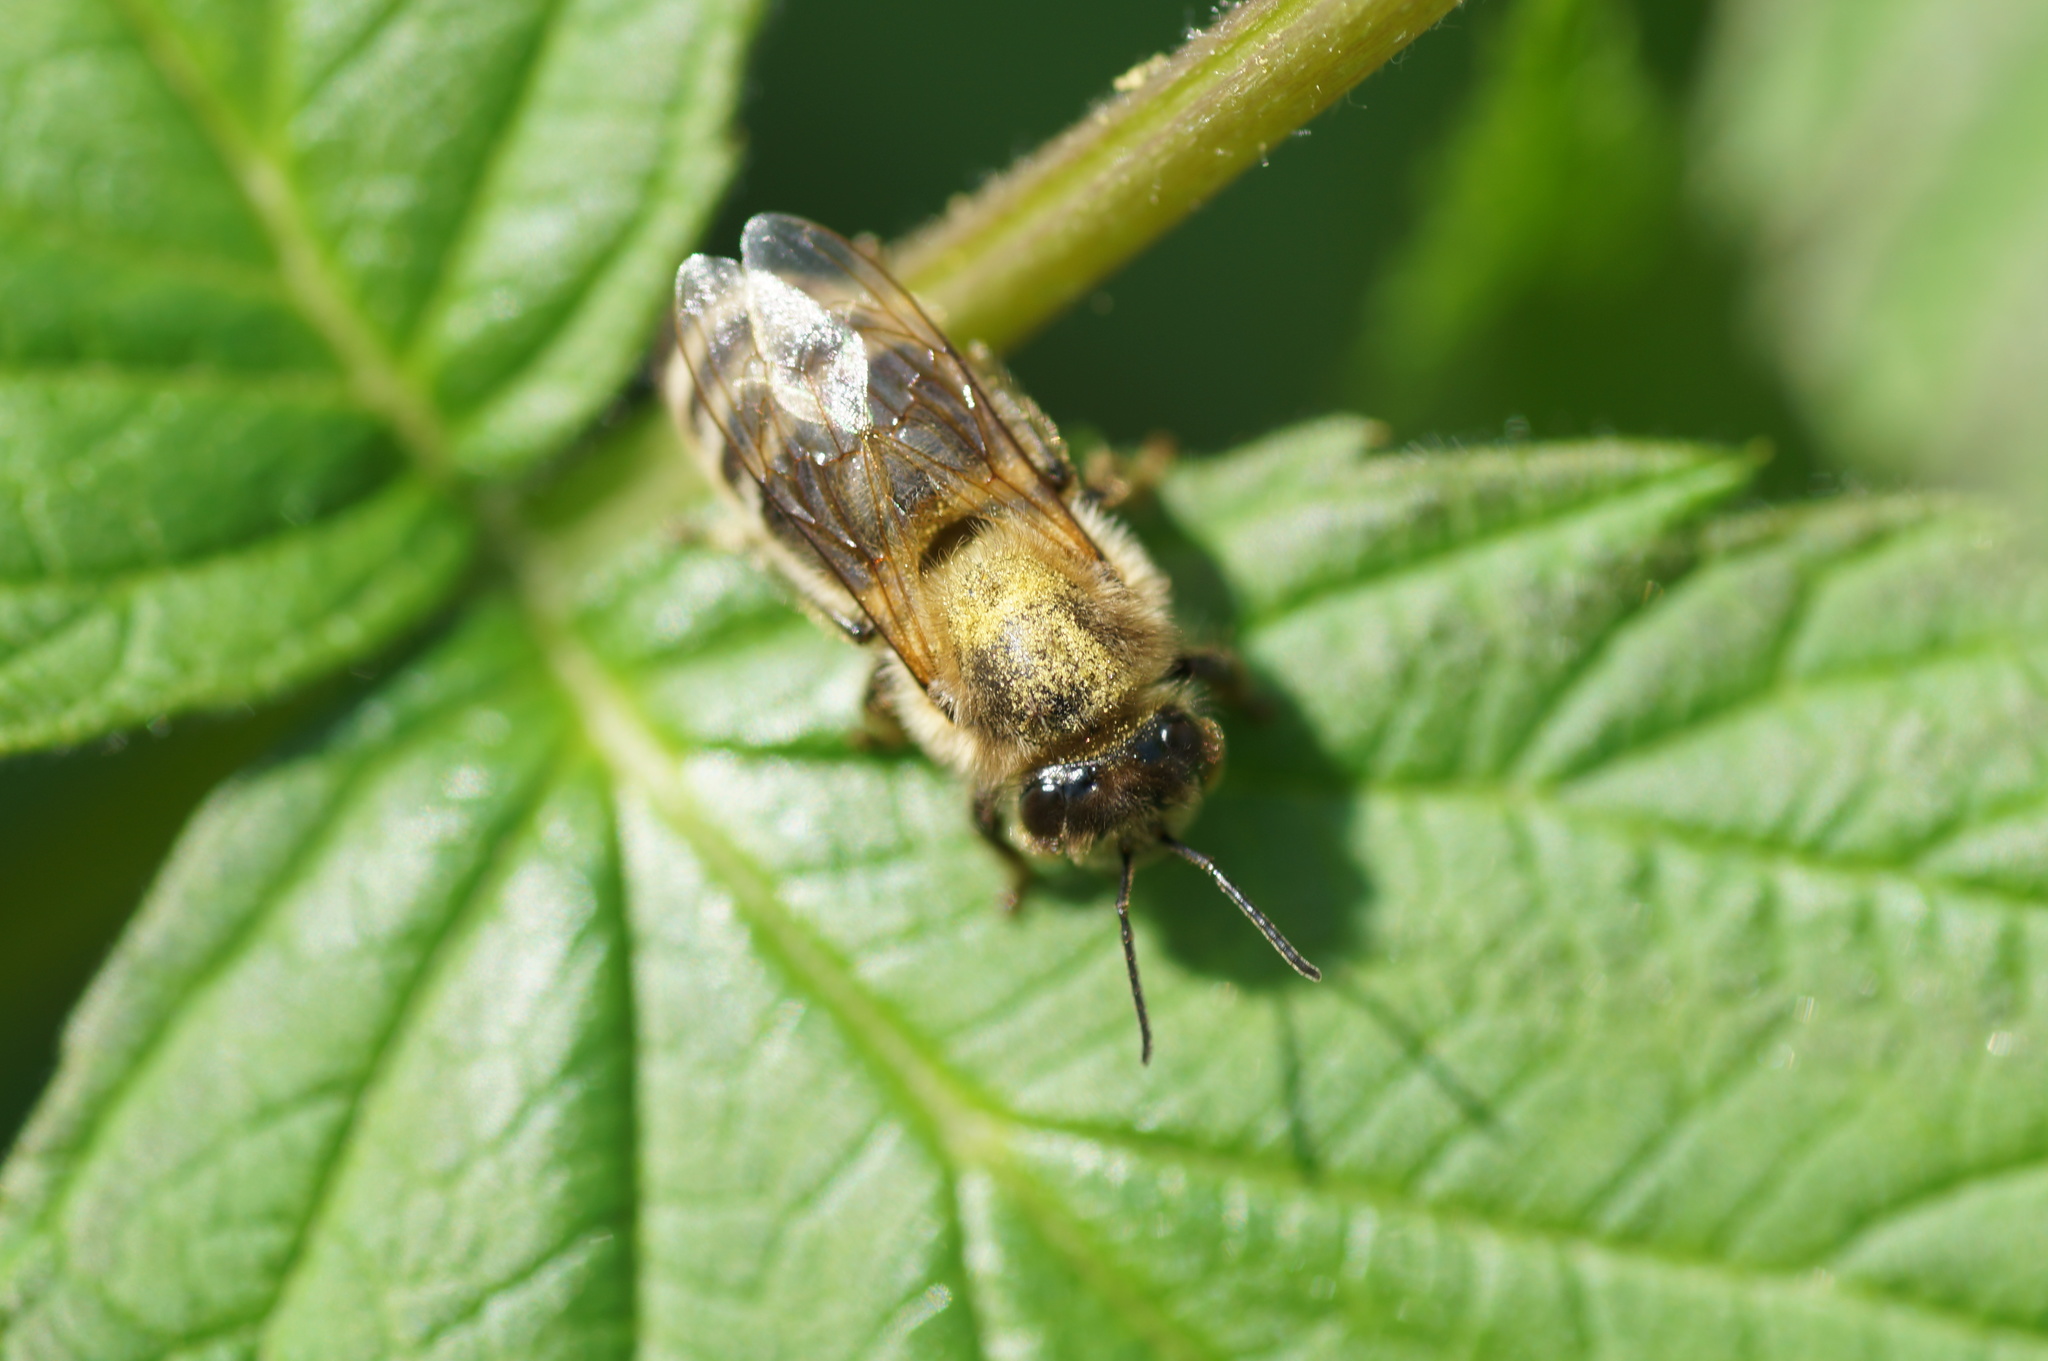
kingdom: Animalia
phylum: Arthropoda
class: Insecta
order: Hymenoptera
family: Apidae
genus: Apis
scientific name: Apis mellifera
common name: Honey bee
